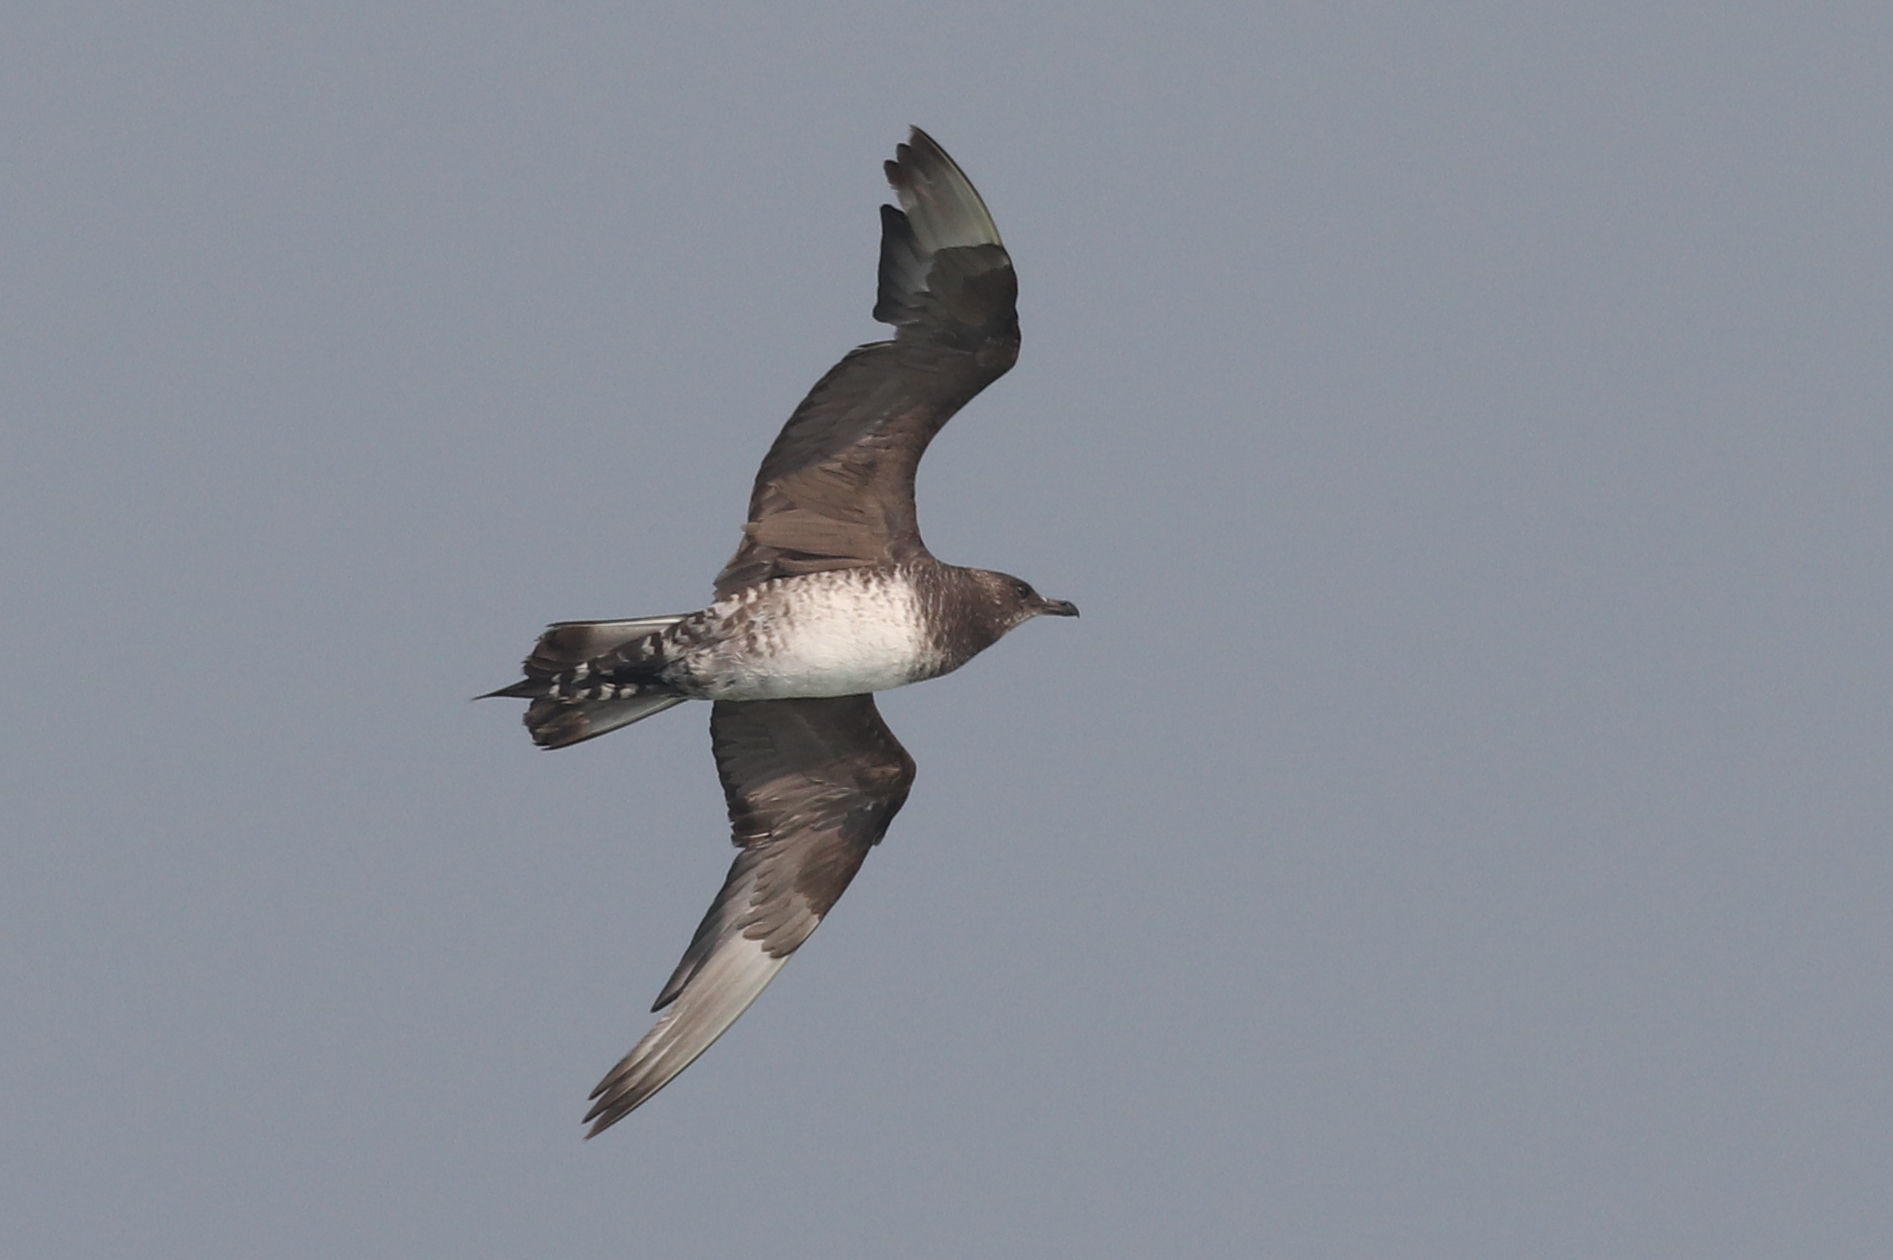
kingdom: Animalia
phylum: Chordata
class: Aves
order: Charadriiformes
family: Stercorariidae
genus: Stercorarius
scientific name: Stercorarius parasiticus
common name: Parasitic jaeger
